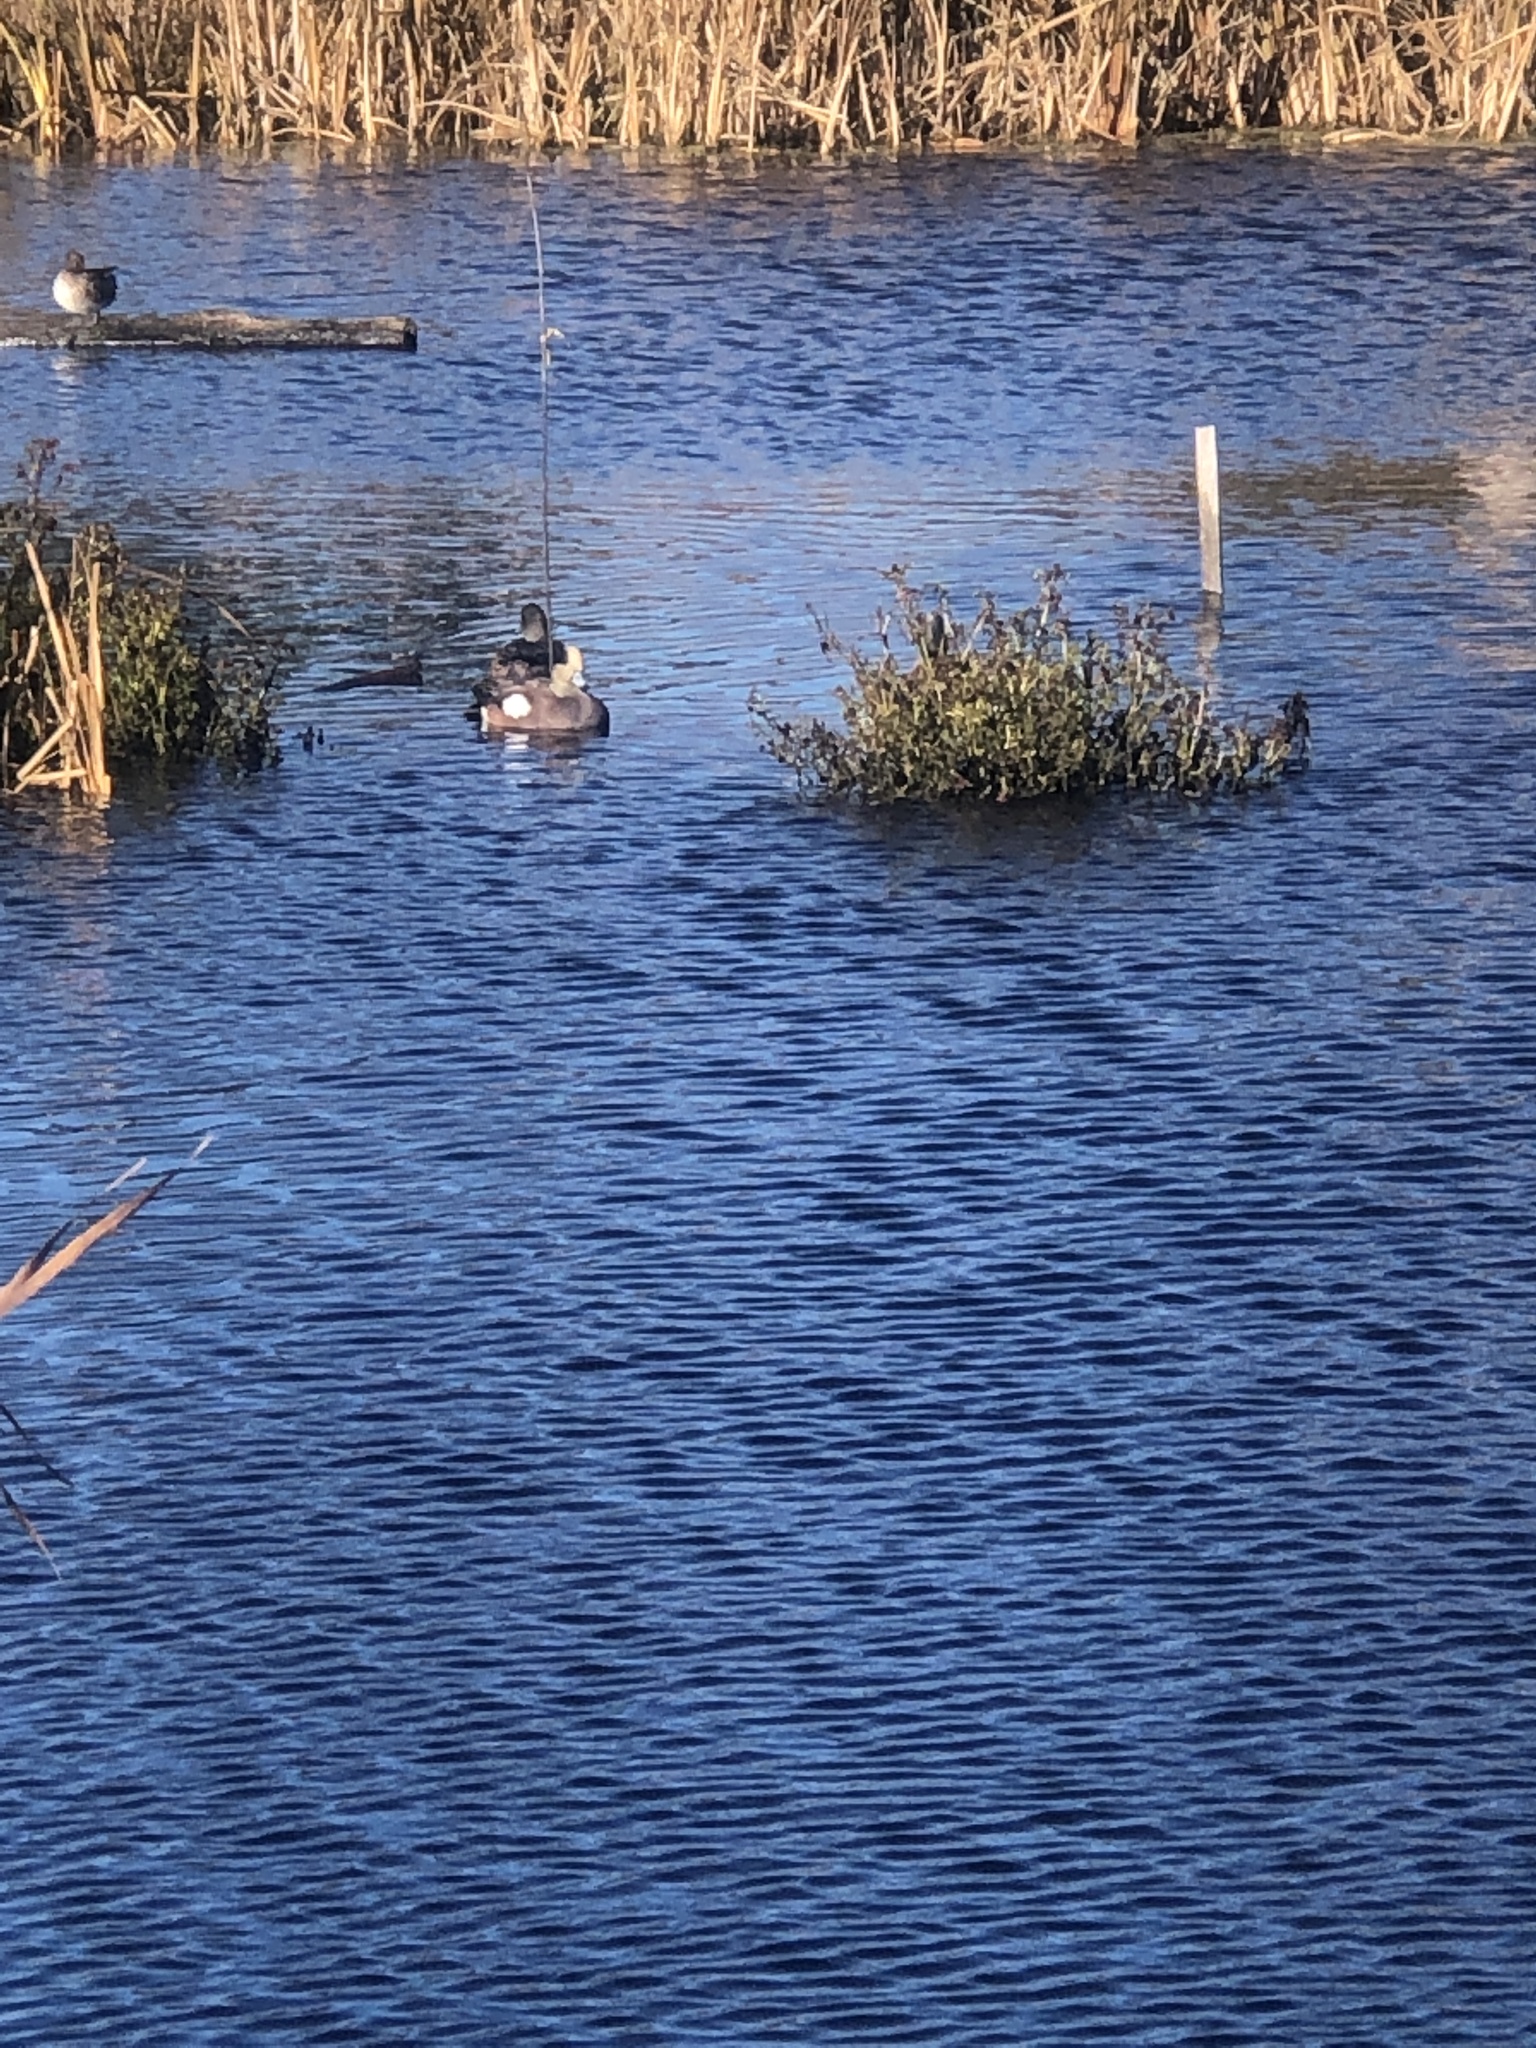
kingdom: Animalia
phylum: Chordata
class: Aves
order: Anseriformes
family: Anatidae
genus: Mareca
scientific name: Mareca americana
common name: American wigeon
